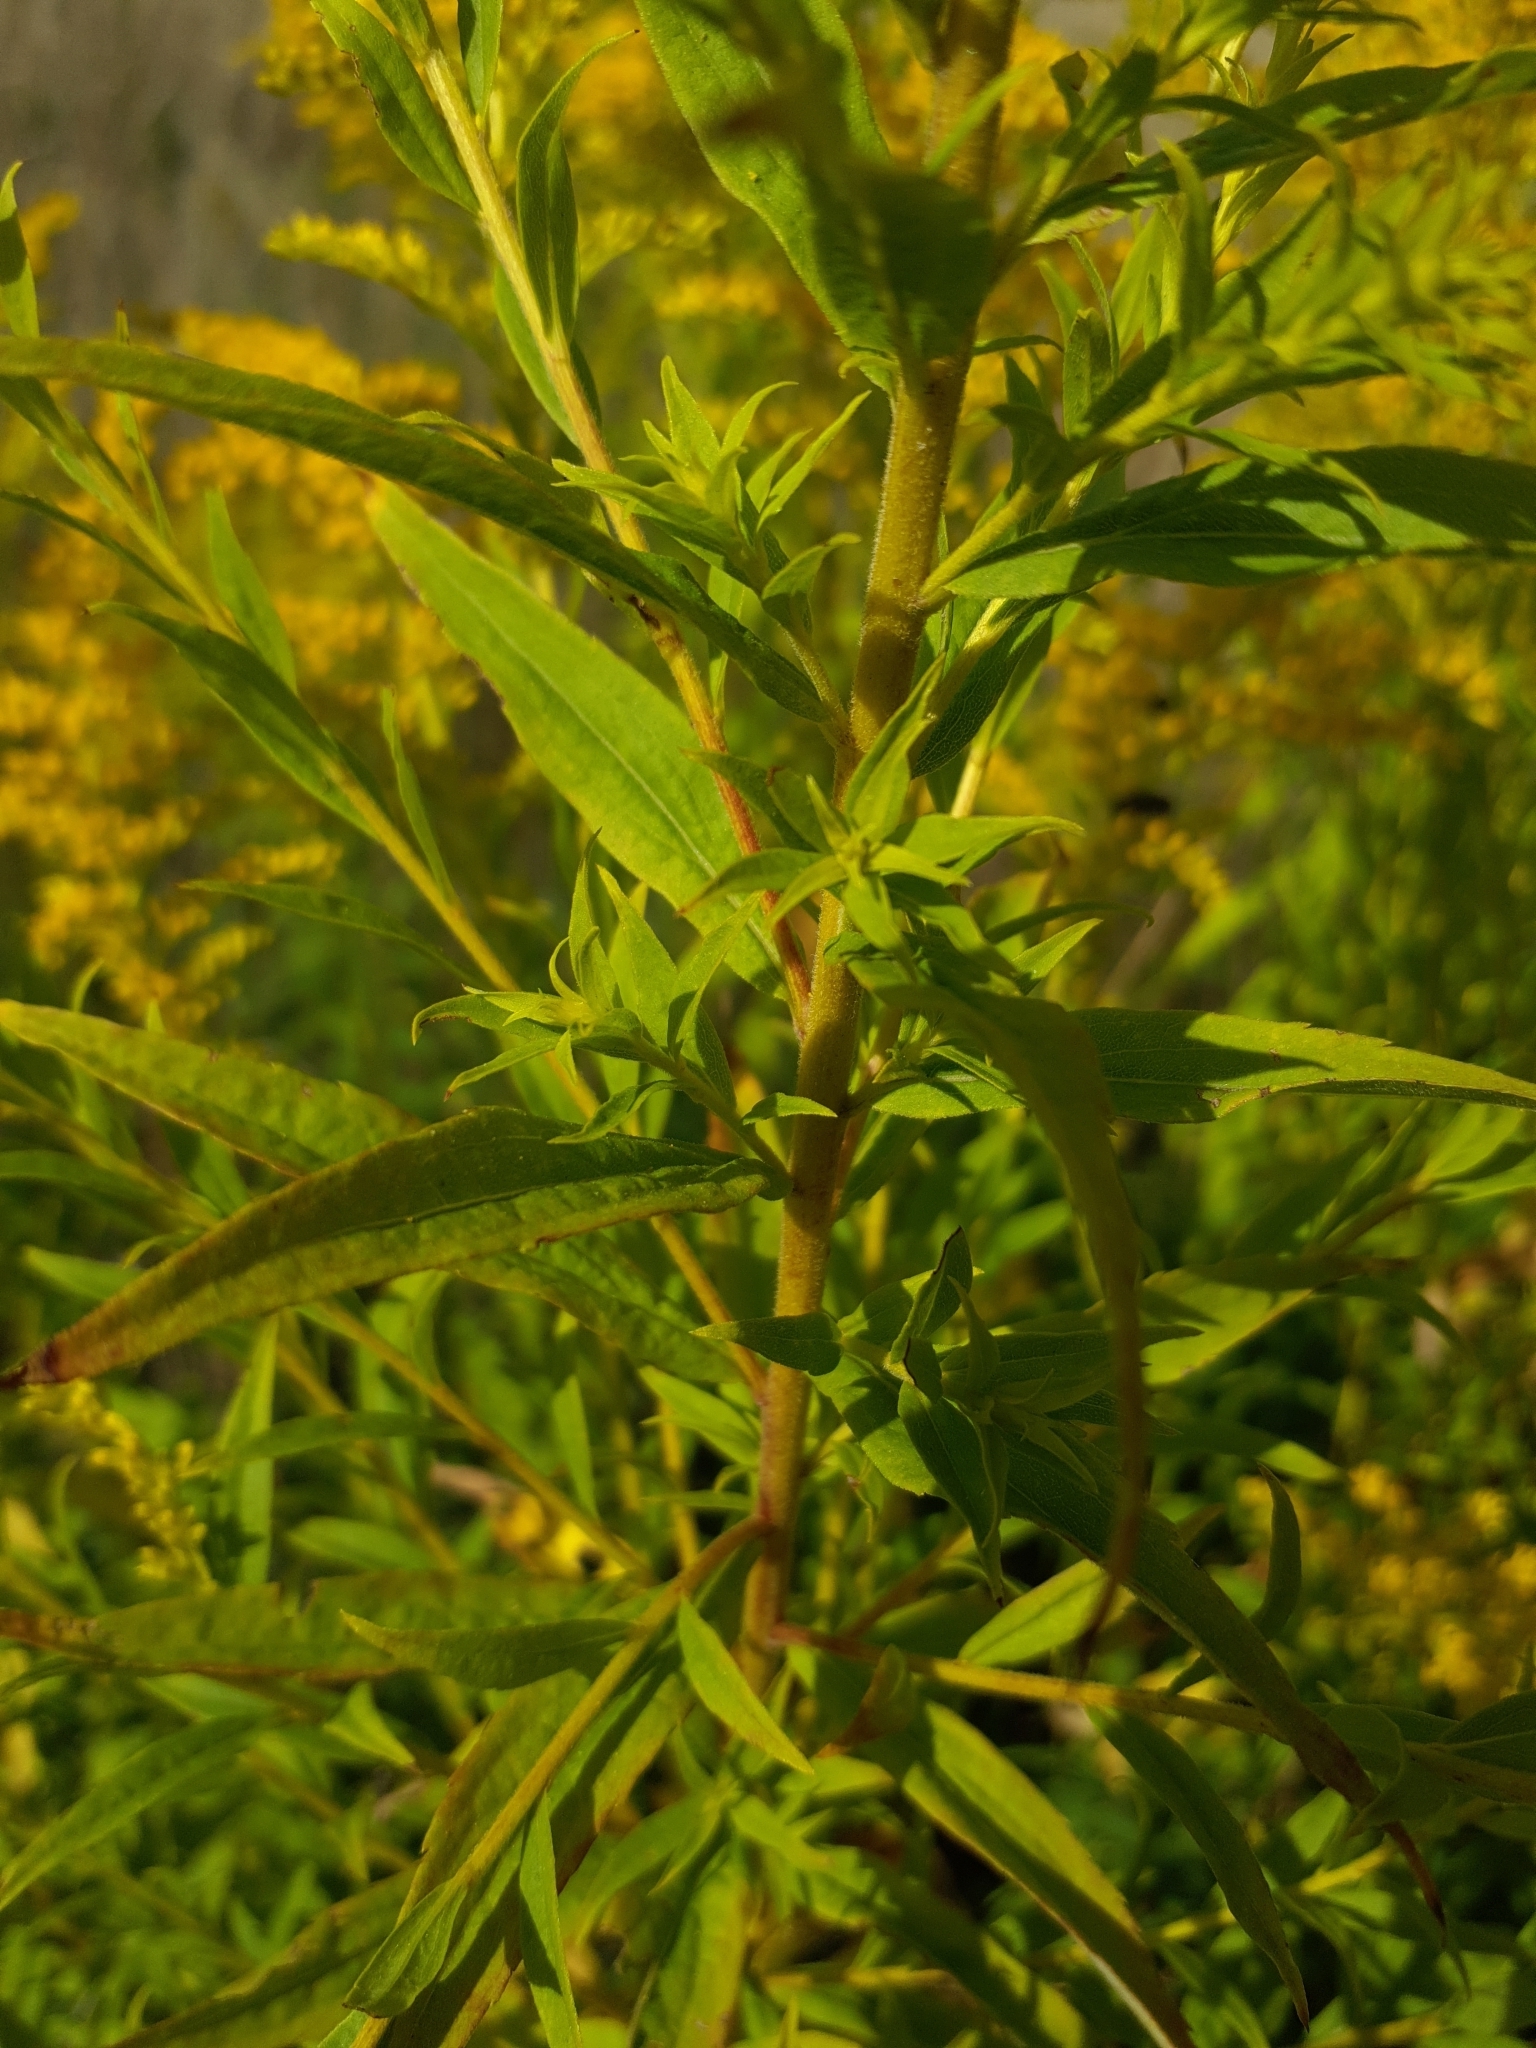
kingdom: Plantae
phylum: Tracheophyta
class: Magnoliopsida
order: Asterales
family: Asteraceae
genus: Solidago
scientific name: Solidago canadensis
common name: Canada goldenrod
